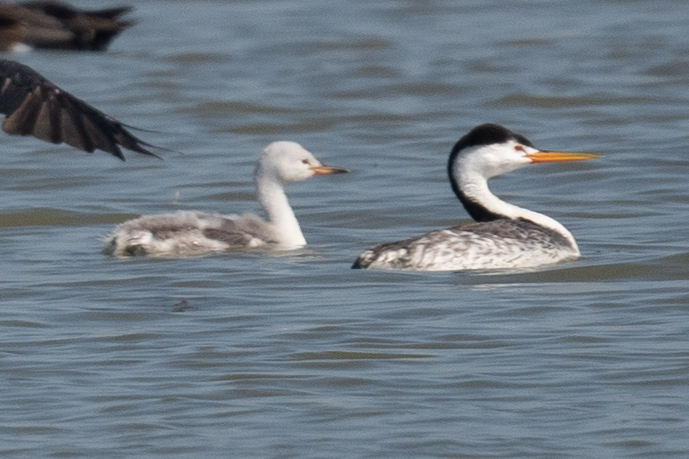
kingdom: Animalia
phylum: Chordata
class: Aves
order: Podicipediformes
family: Podicipedidae
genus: Aechmophorus
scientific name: Aechmophorus clarkii
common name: Clark's grebe
